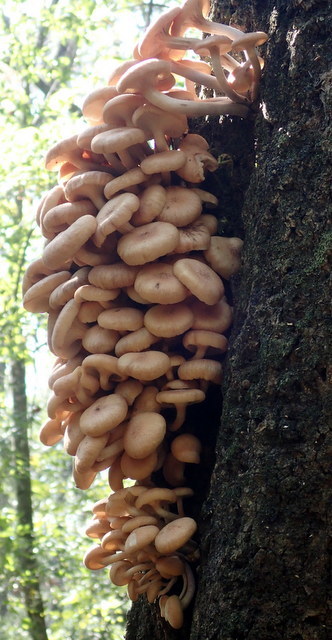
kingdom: Fungi
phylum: Basidiomycota
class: Agaricomycetes
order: Agaricales
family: Physalacriaceae
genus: Desarmillaria
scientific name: Desarmillaria caespitosa
